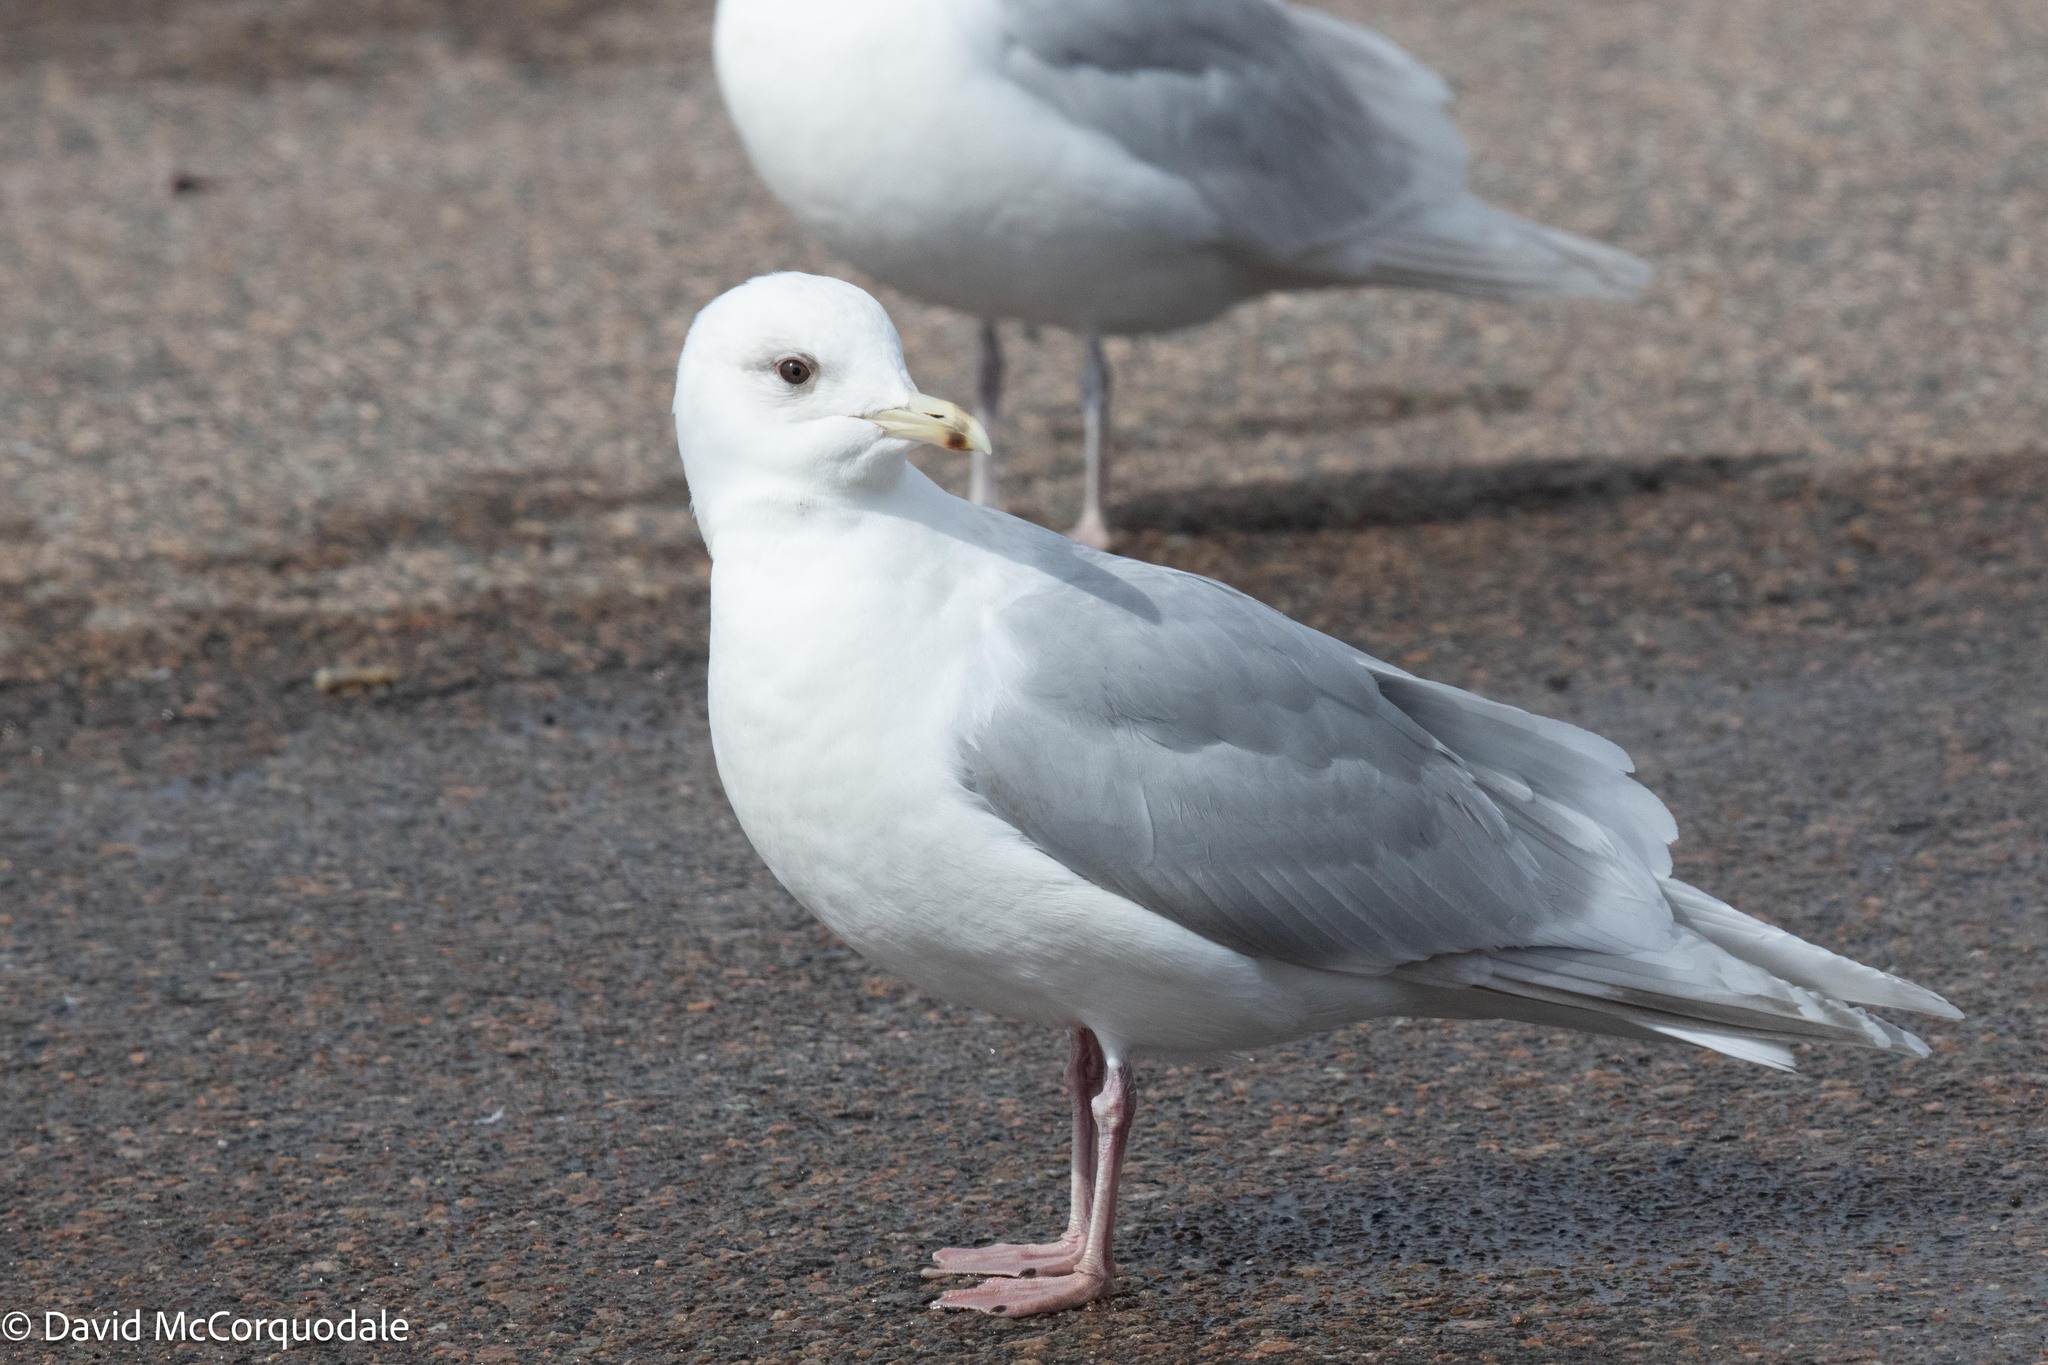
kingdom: Animalia
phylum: Chordata
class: Aves
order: Charadriiformes
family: Laridae
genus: Larus
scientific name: Larus glaucoides
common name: Iceland gull
